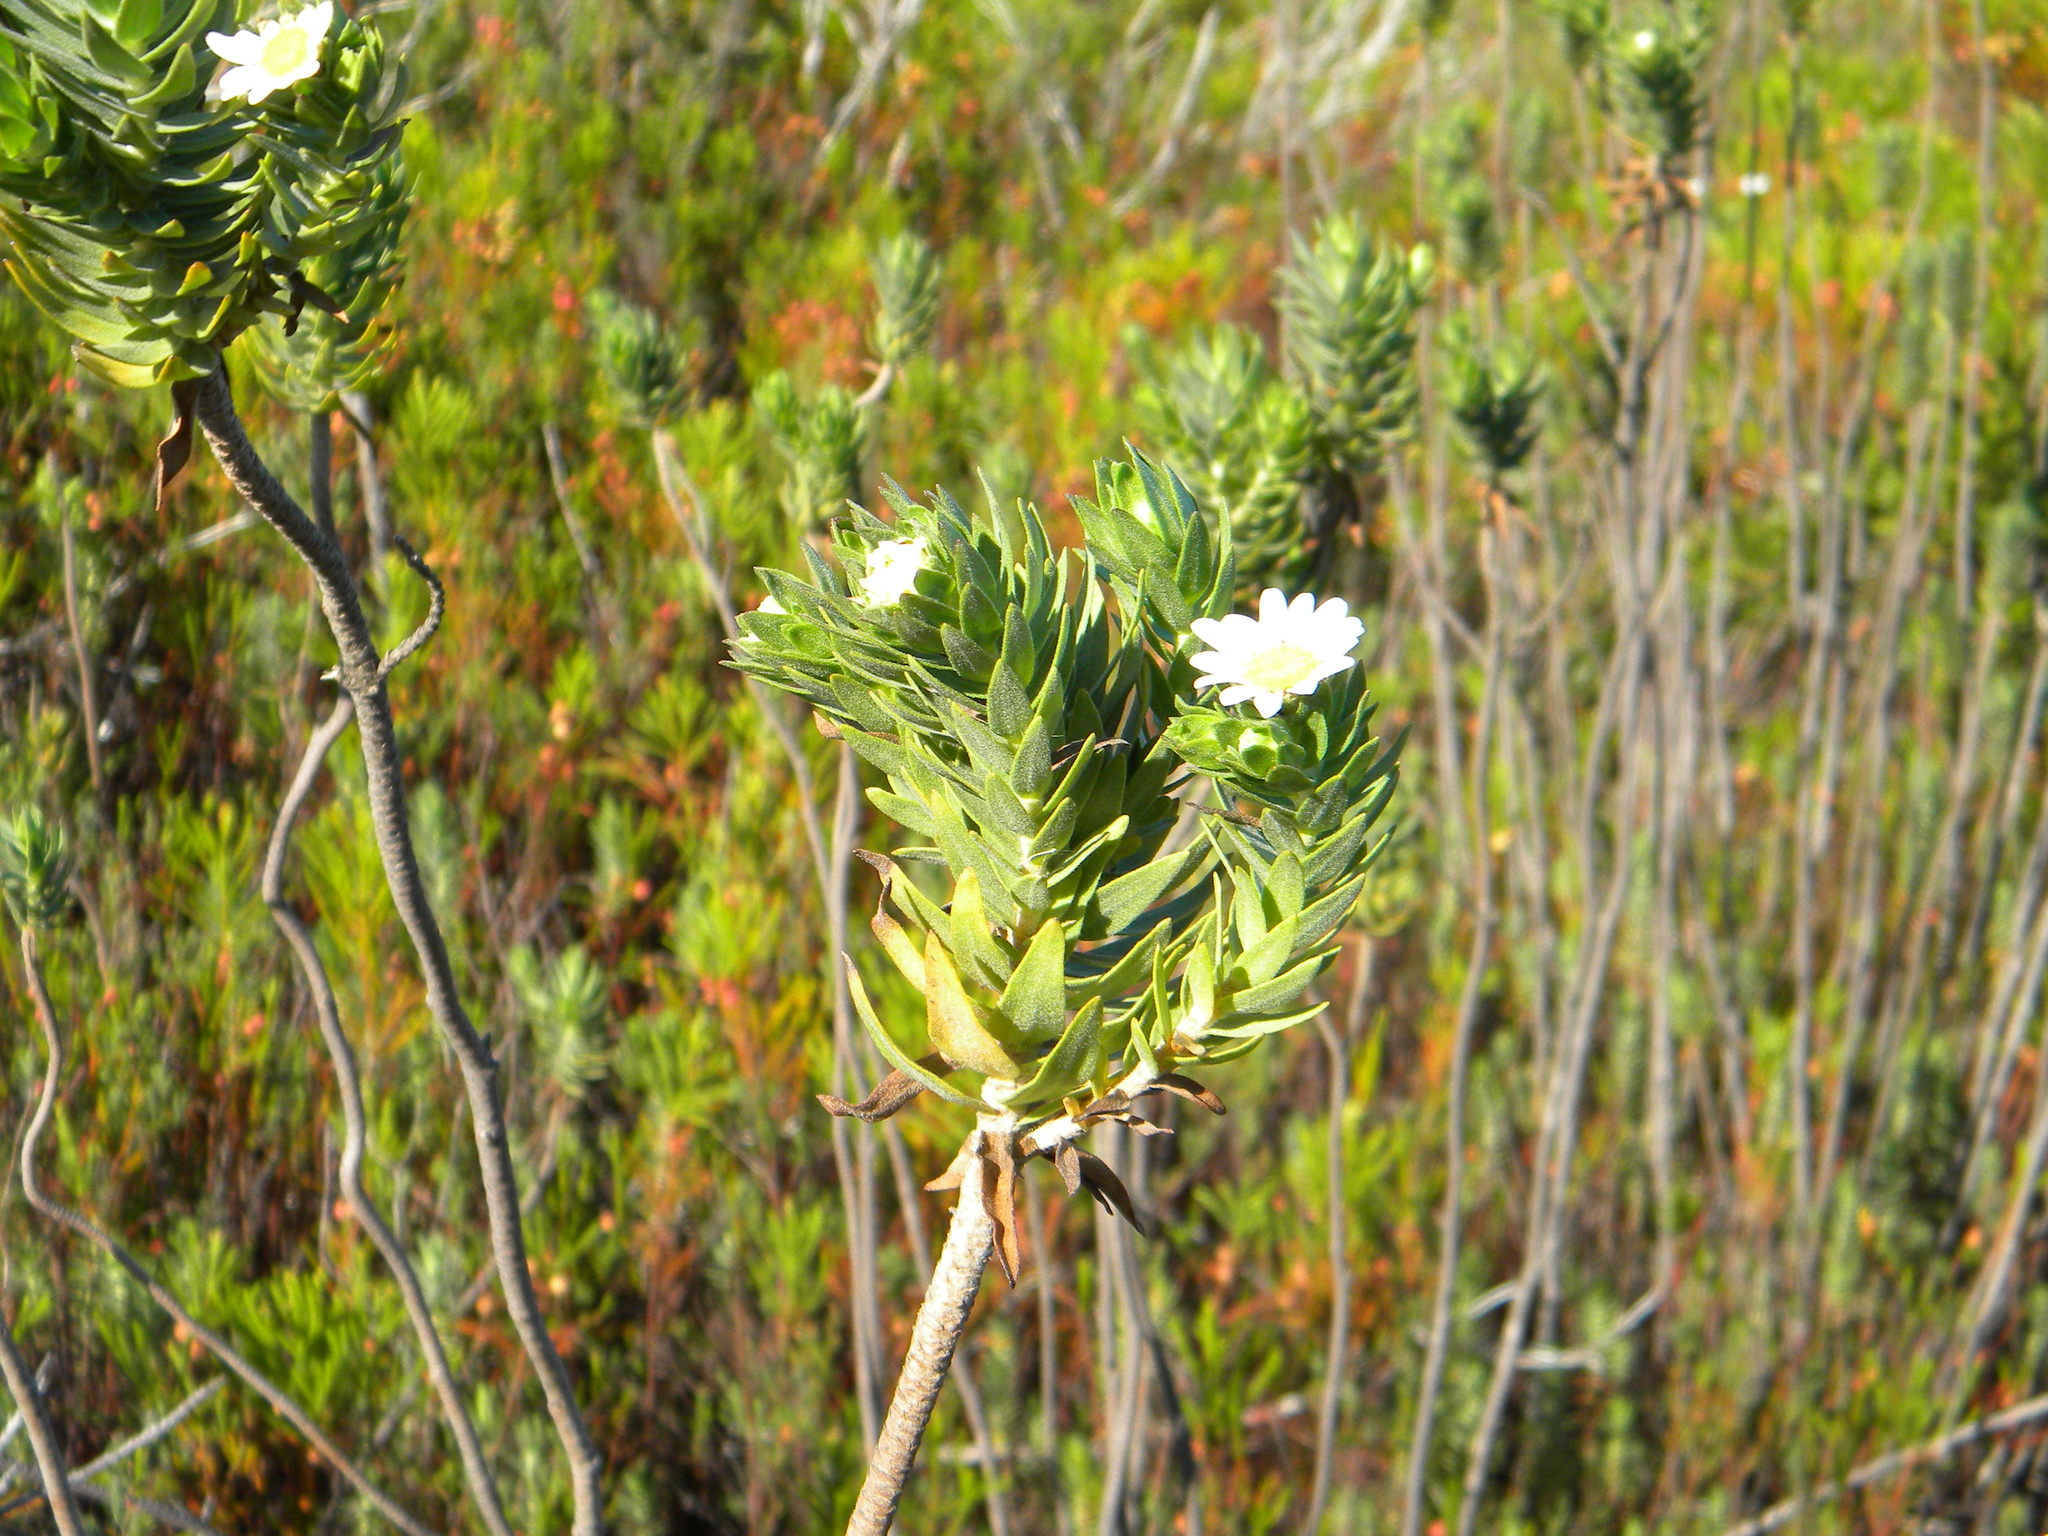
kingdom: Plantae
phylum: Tracheophyta
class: Magnoliopsida
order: Asterales
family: Asteraceae
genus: Osmitopsis
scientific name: Osmitopsis asteriscoides
